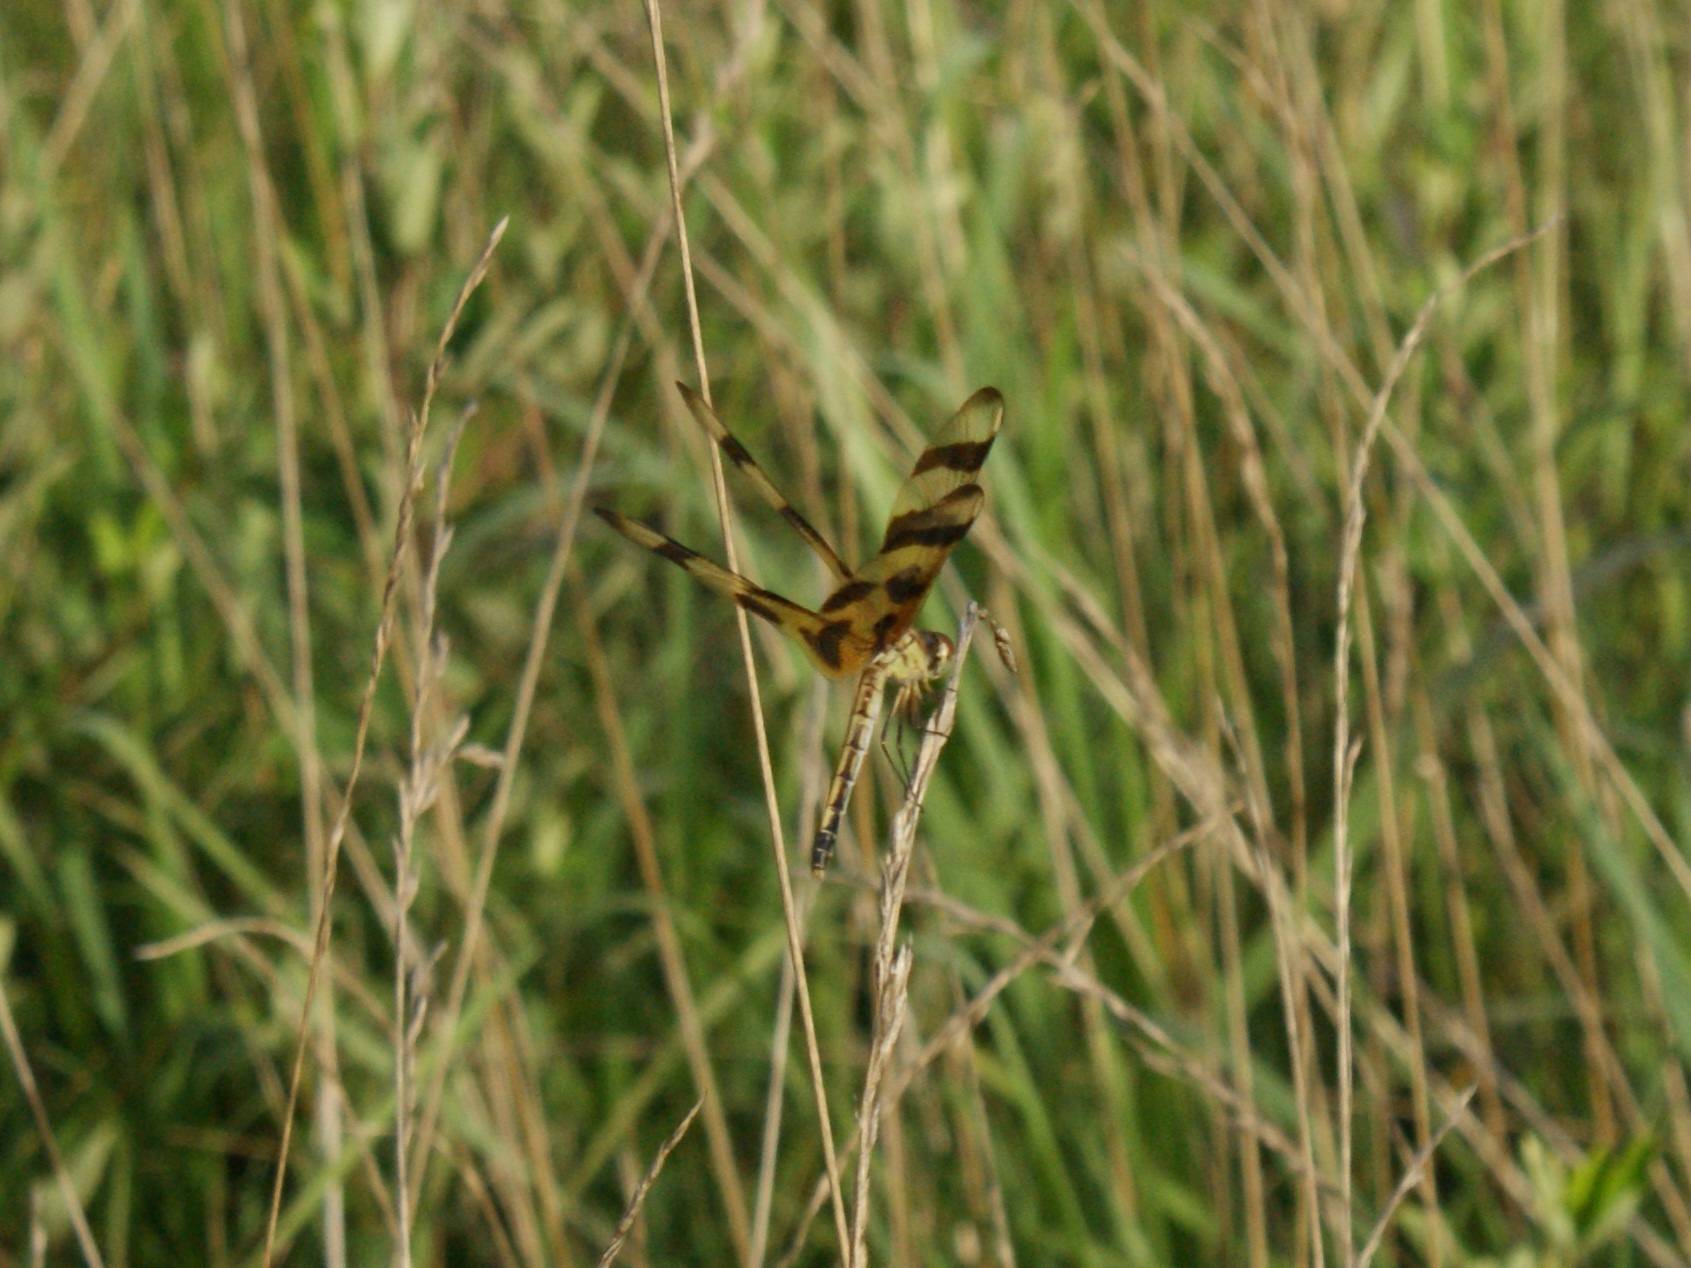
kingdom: Animalia
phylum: Arthropoda
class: Insecta
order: Odonata
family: Libellulidae
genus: Celithemis
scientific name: Celithemis eponina
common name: Halloween pennant
